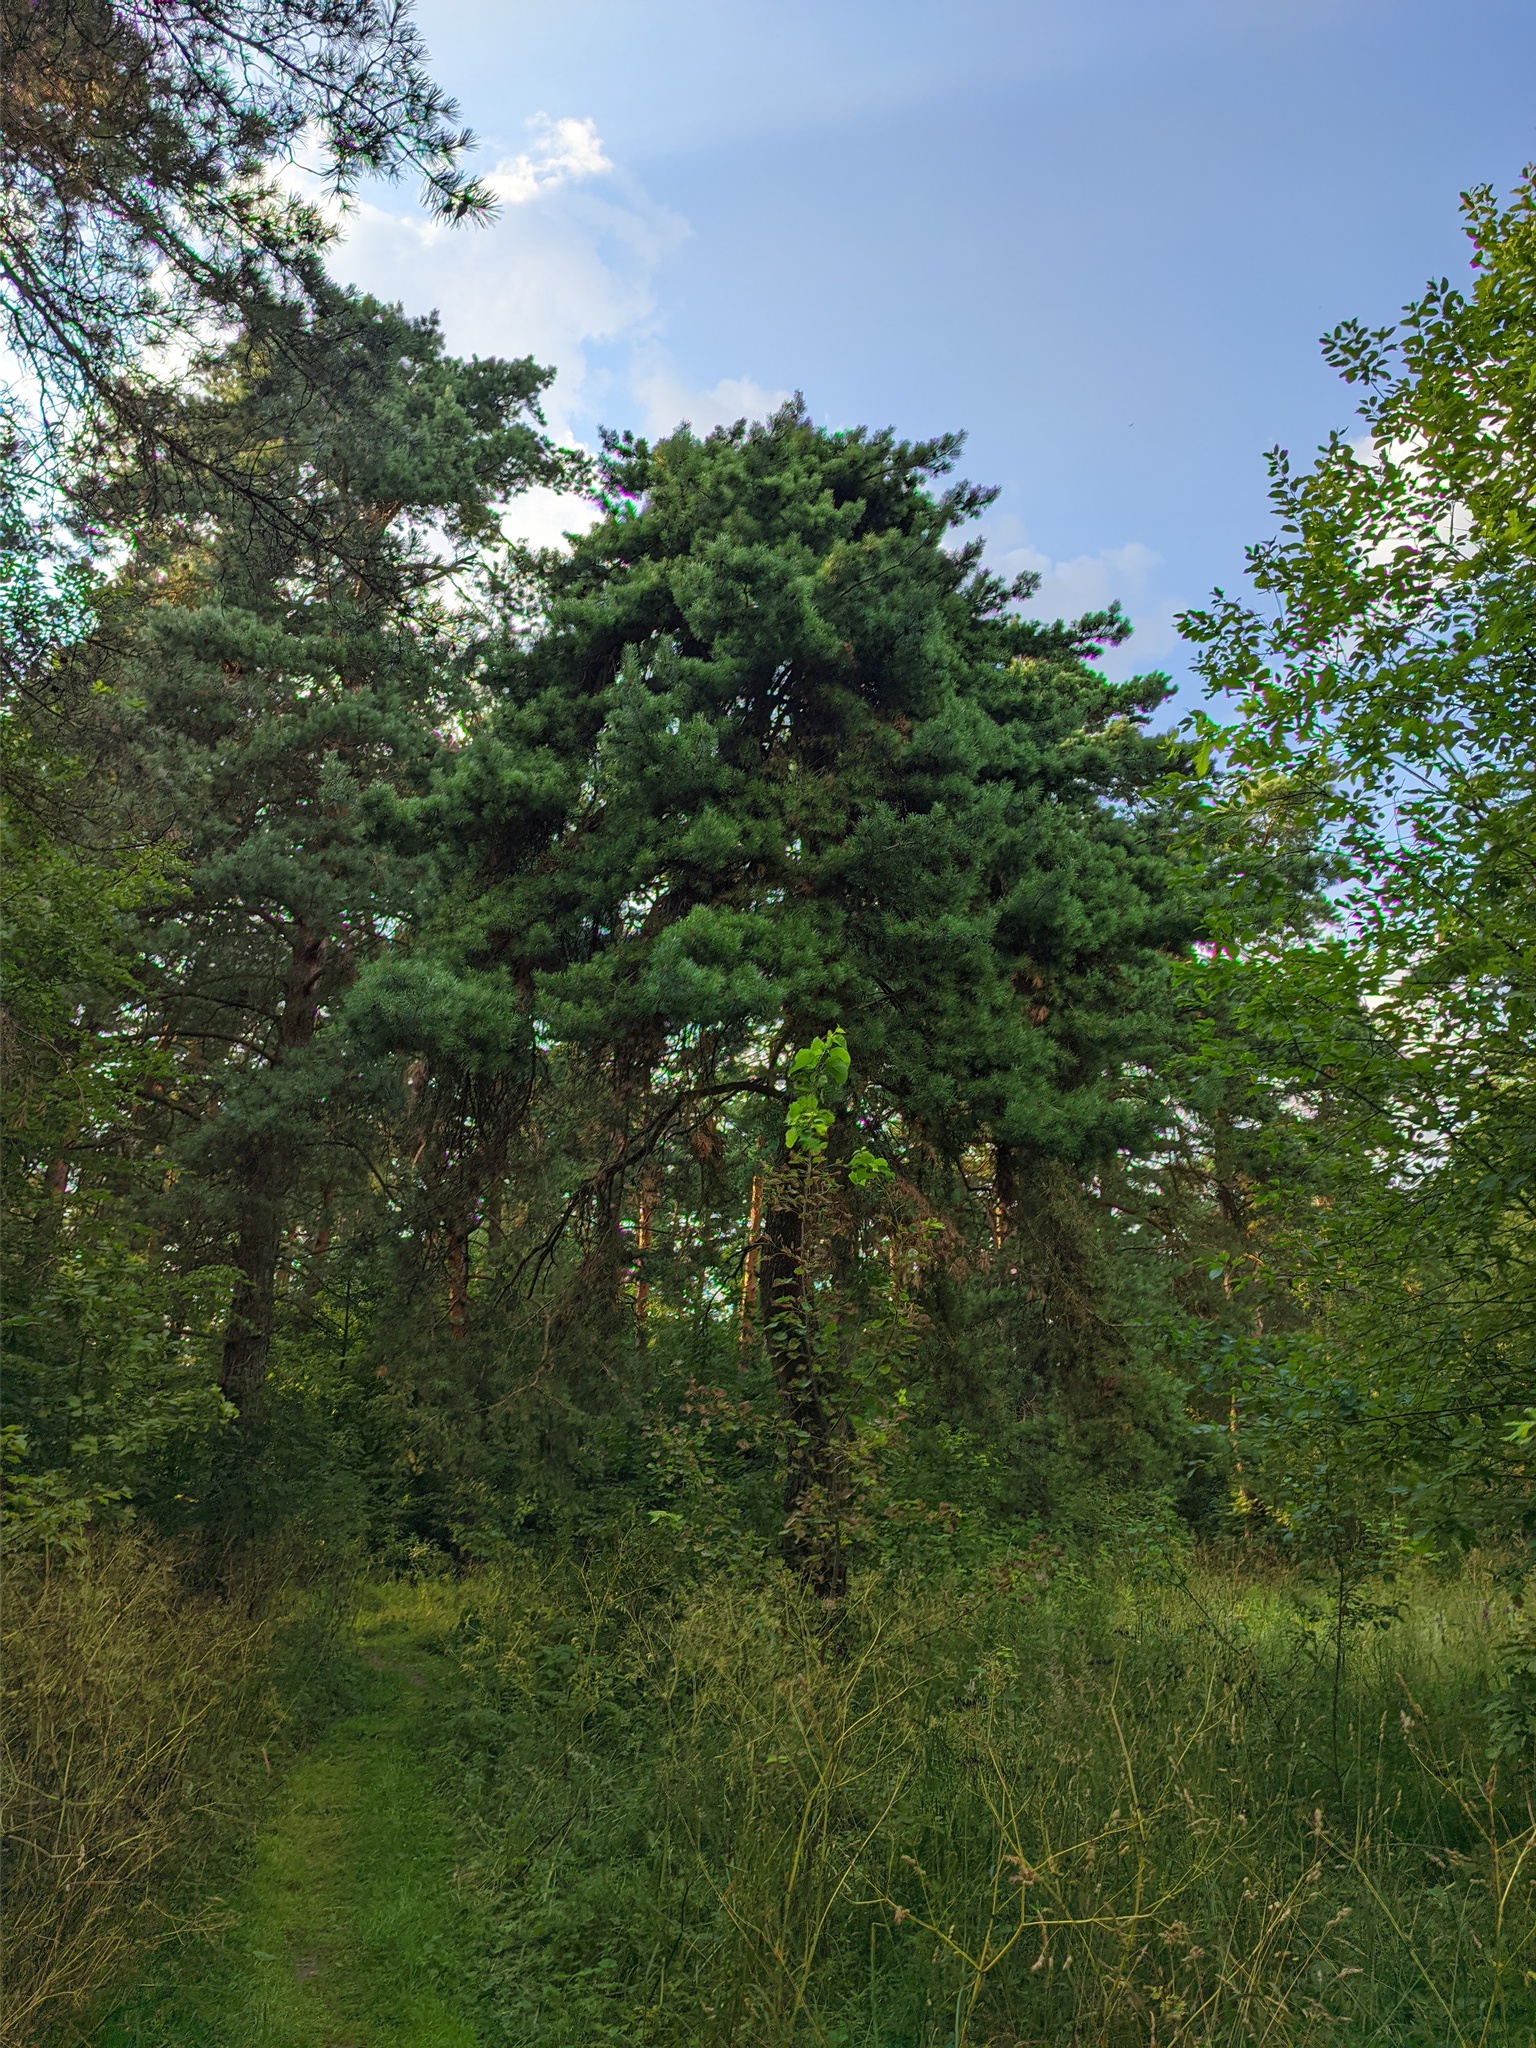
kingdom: Plantae
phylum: Tracheophyta
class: Pinopsida
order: Pinales
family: Pinaceae
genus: Pinus
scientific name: Pinus sylvestris
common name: Scots pine
